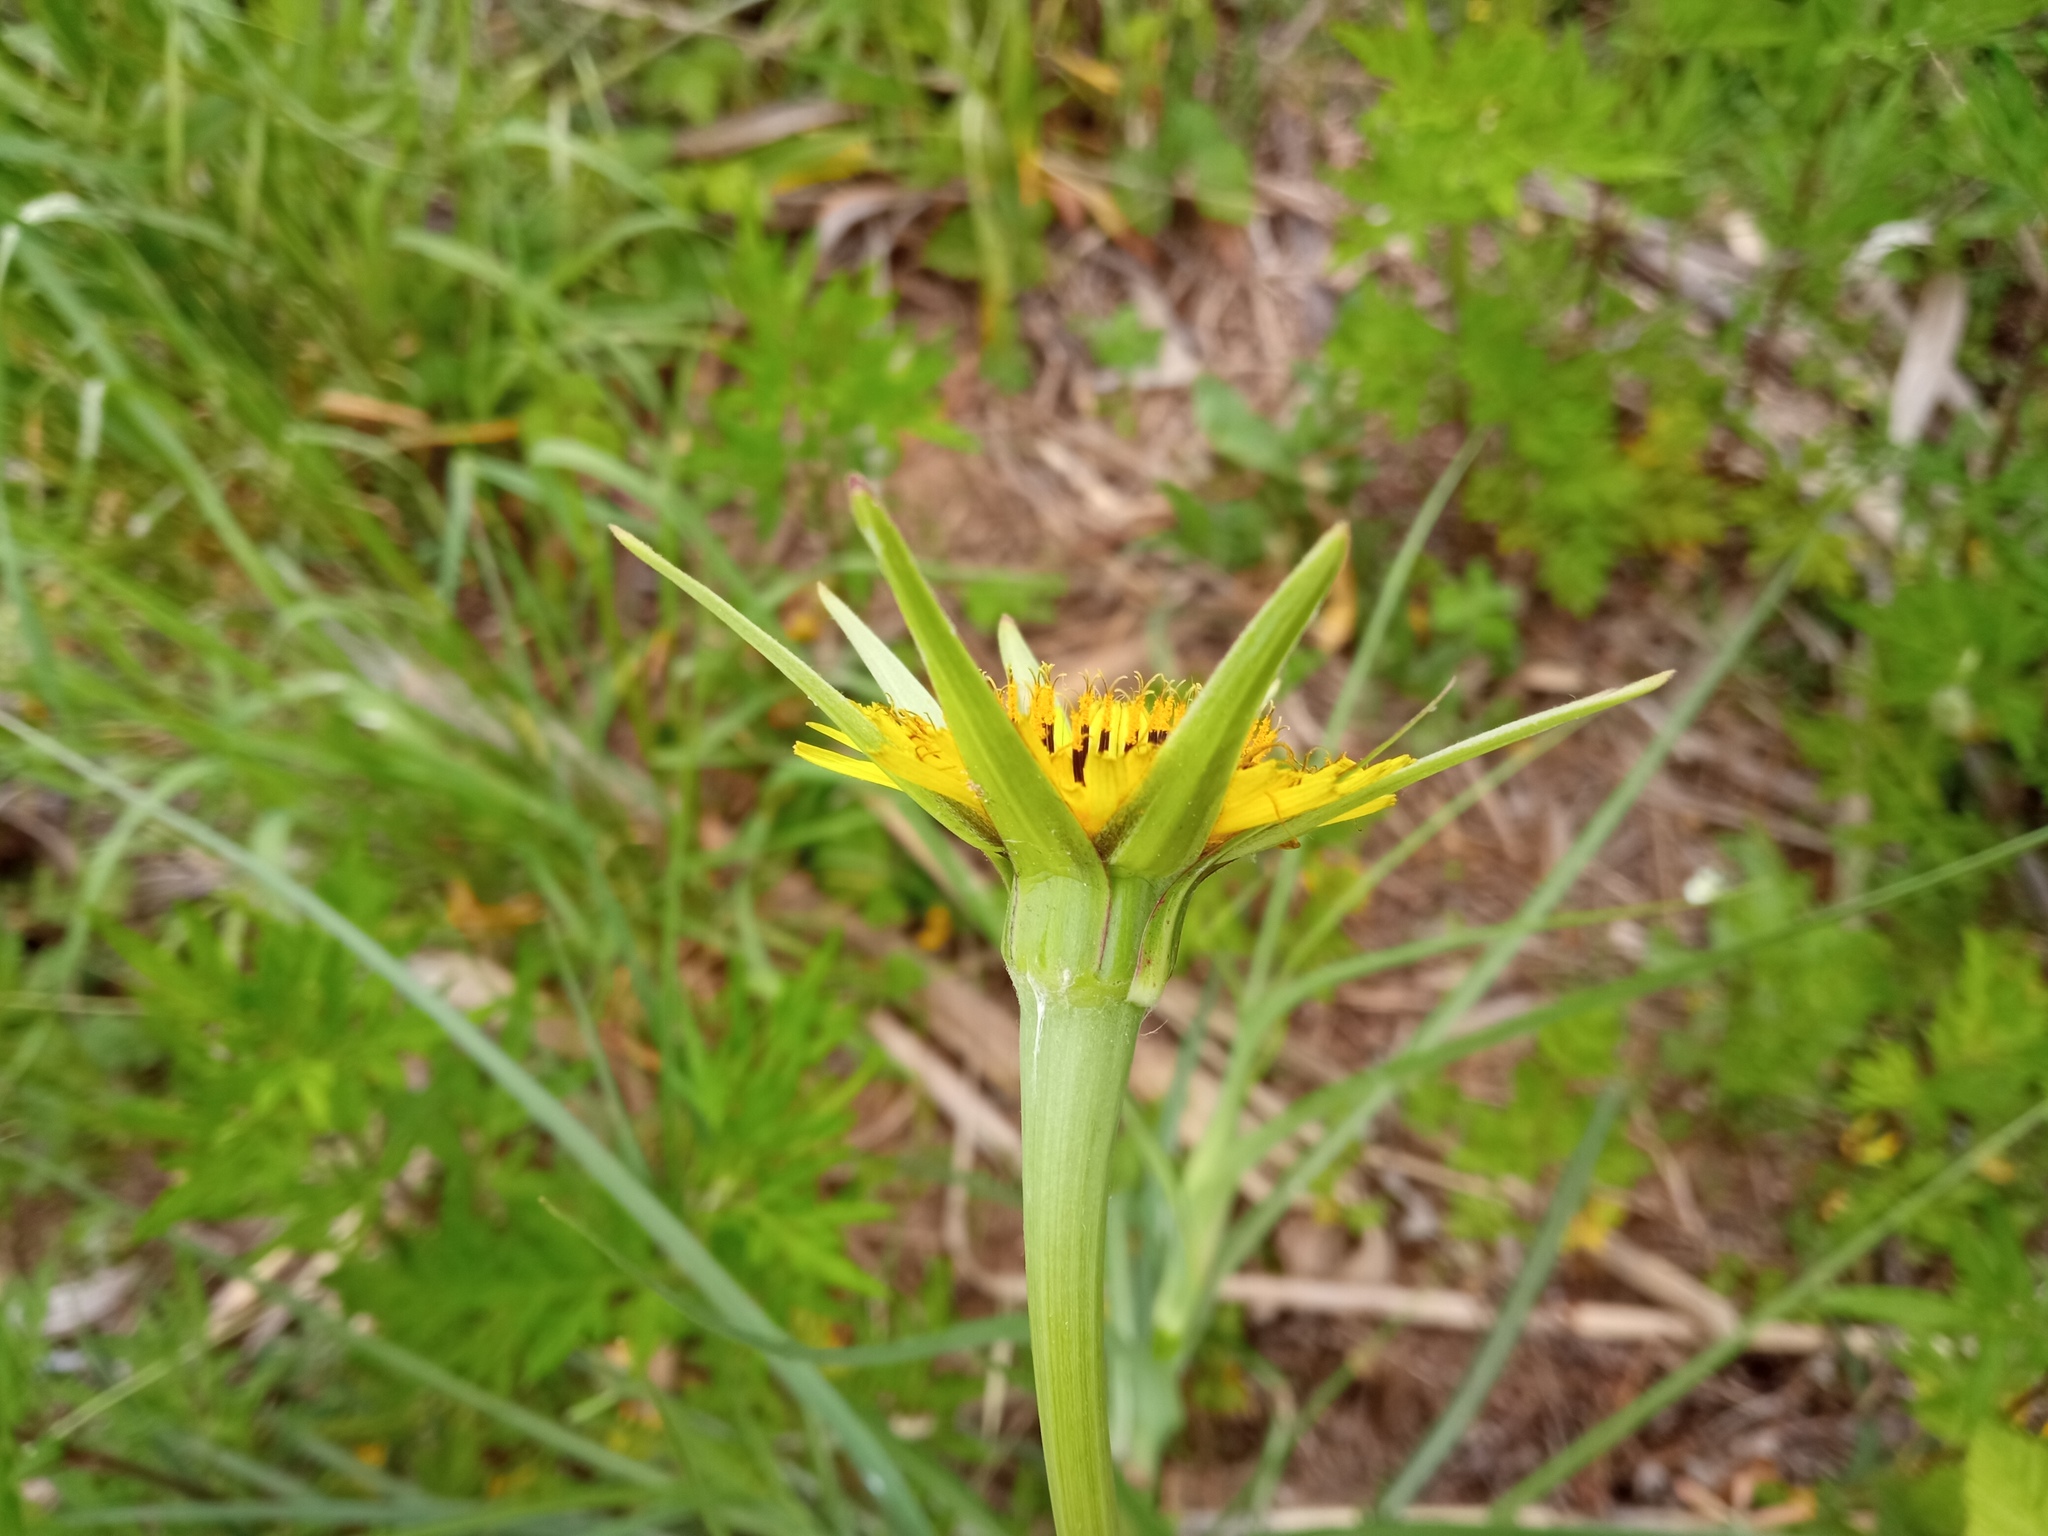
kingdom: Plantae
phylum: Tracheophyta
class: Magnoliopsida
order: Asterales
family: Asteraceae
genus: Tragopogon
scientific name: Tragopogon dubius
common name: Yellow salsify
